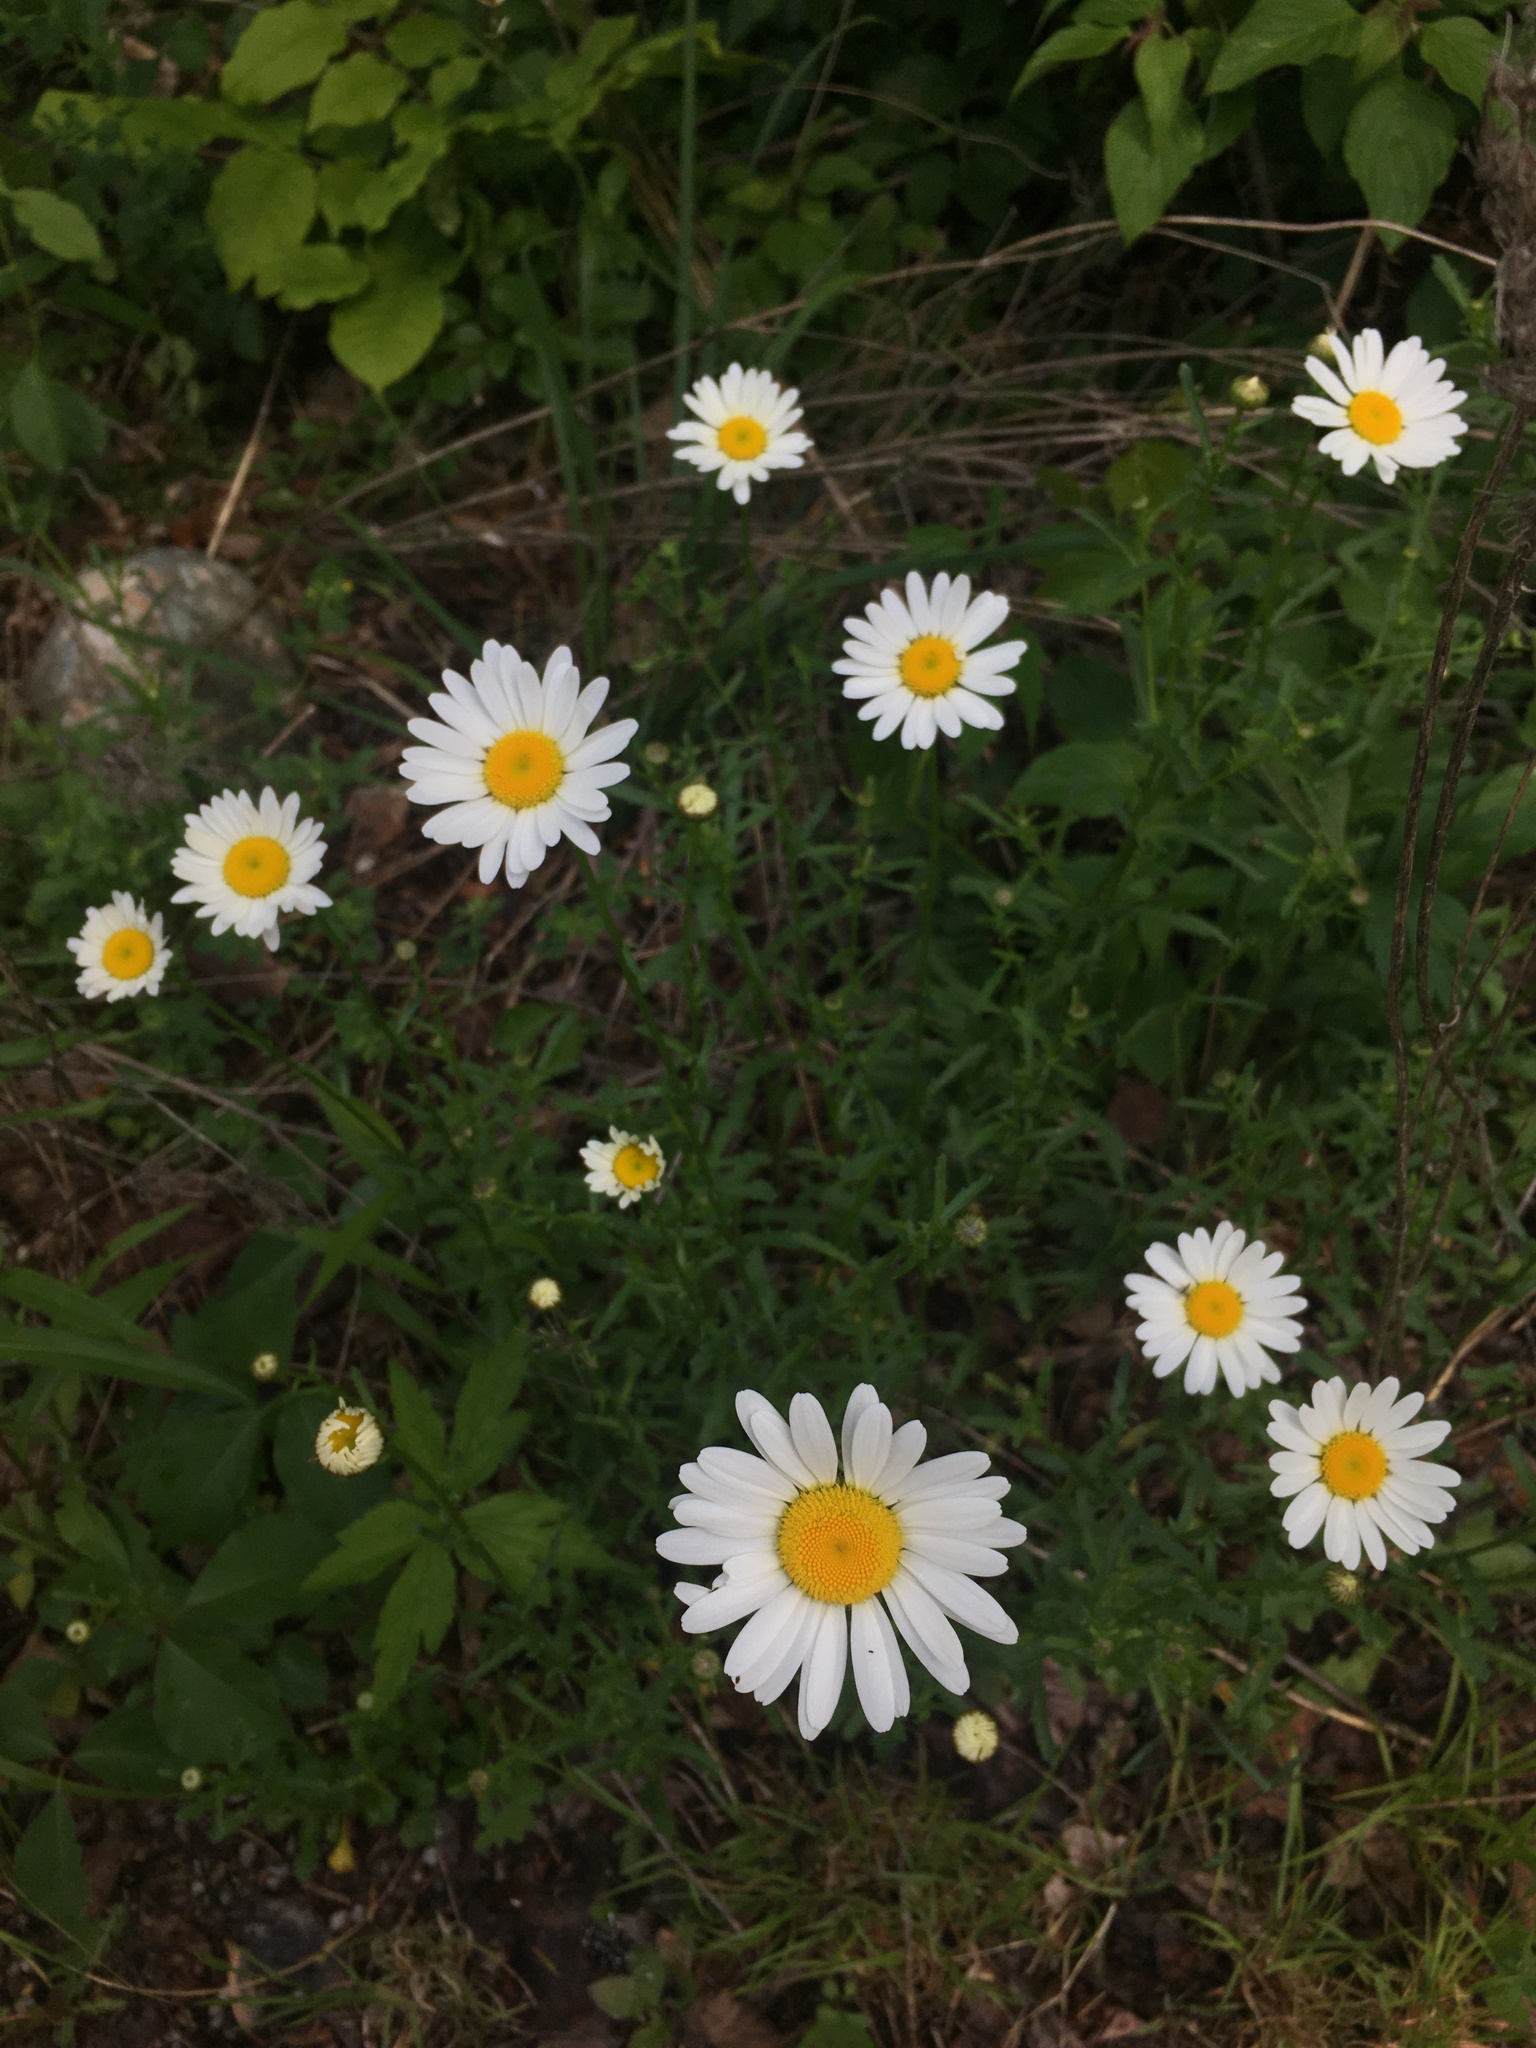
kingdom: Plantae
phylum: Tracheophyta
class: Magnoliopsida
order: Asterales
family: Asteraceae
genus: Leucanthemum
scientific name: Leucanthemum vulgare
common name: Oxeye daisy
